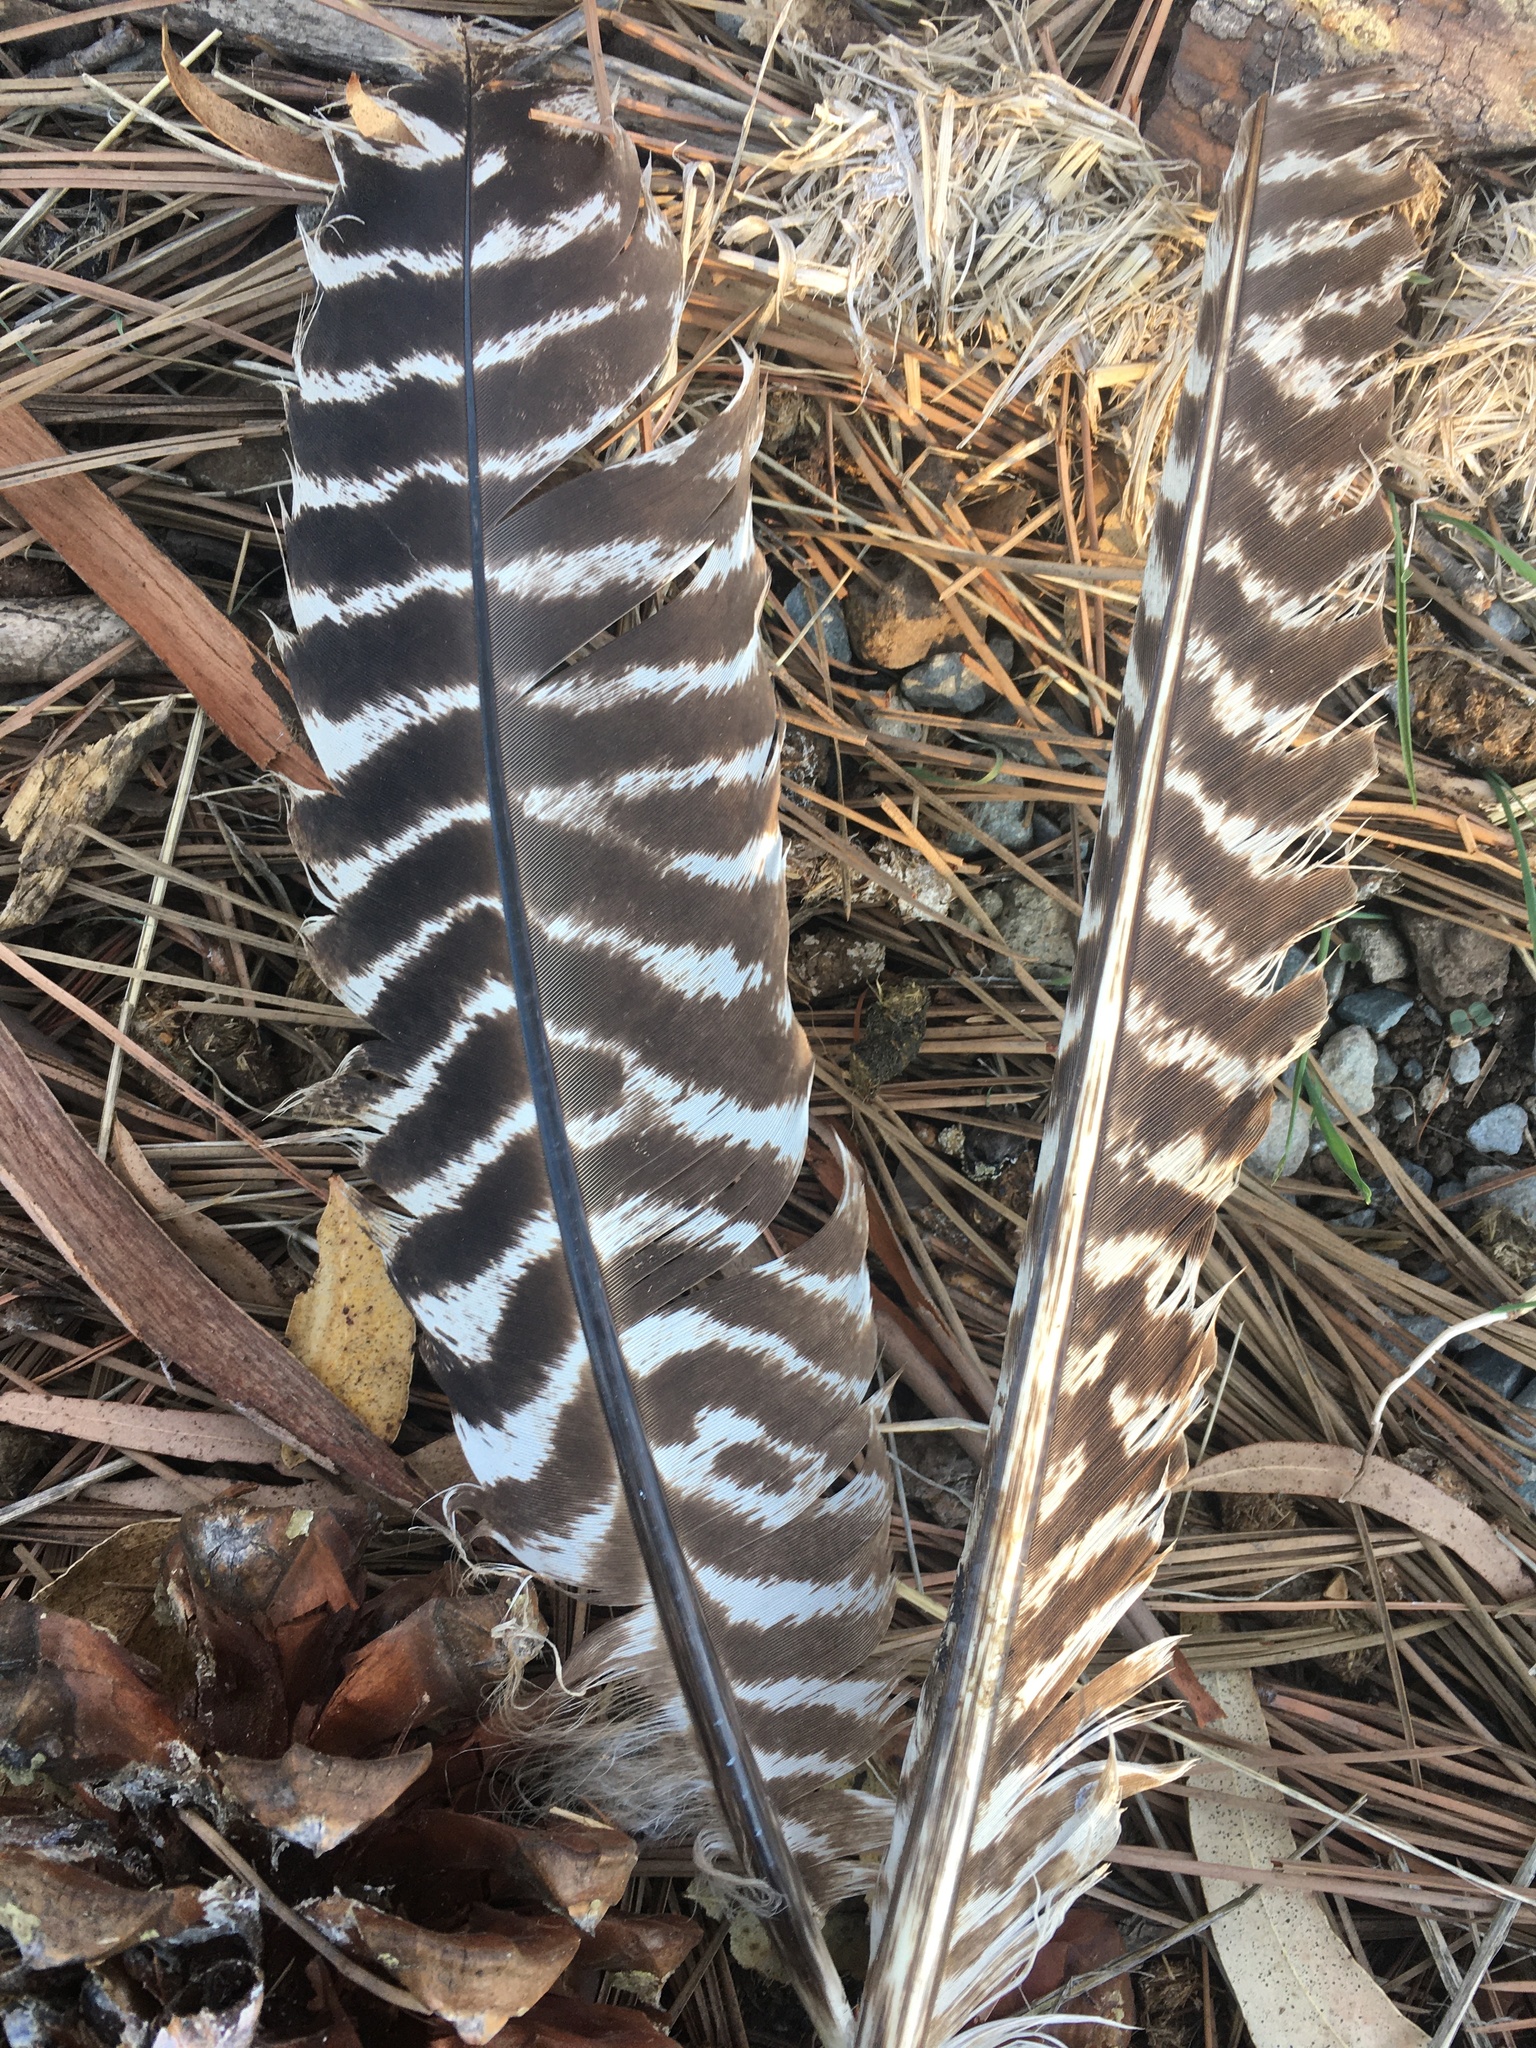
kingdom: Animalia
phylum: Chordata
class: Aves
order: Galliformes
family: Phasianidae
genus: Meleagris
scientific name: Meleagris gallopavo
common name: Wild turkey
